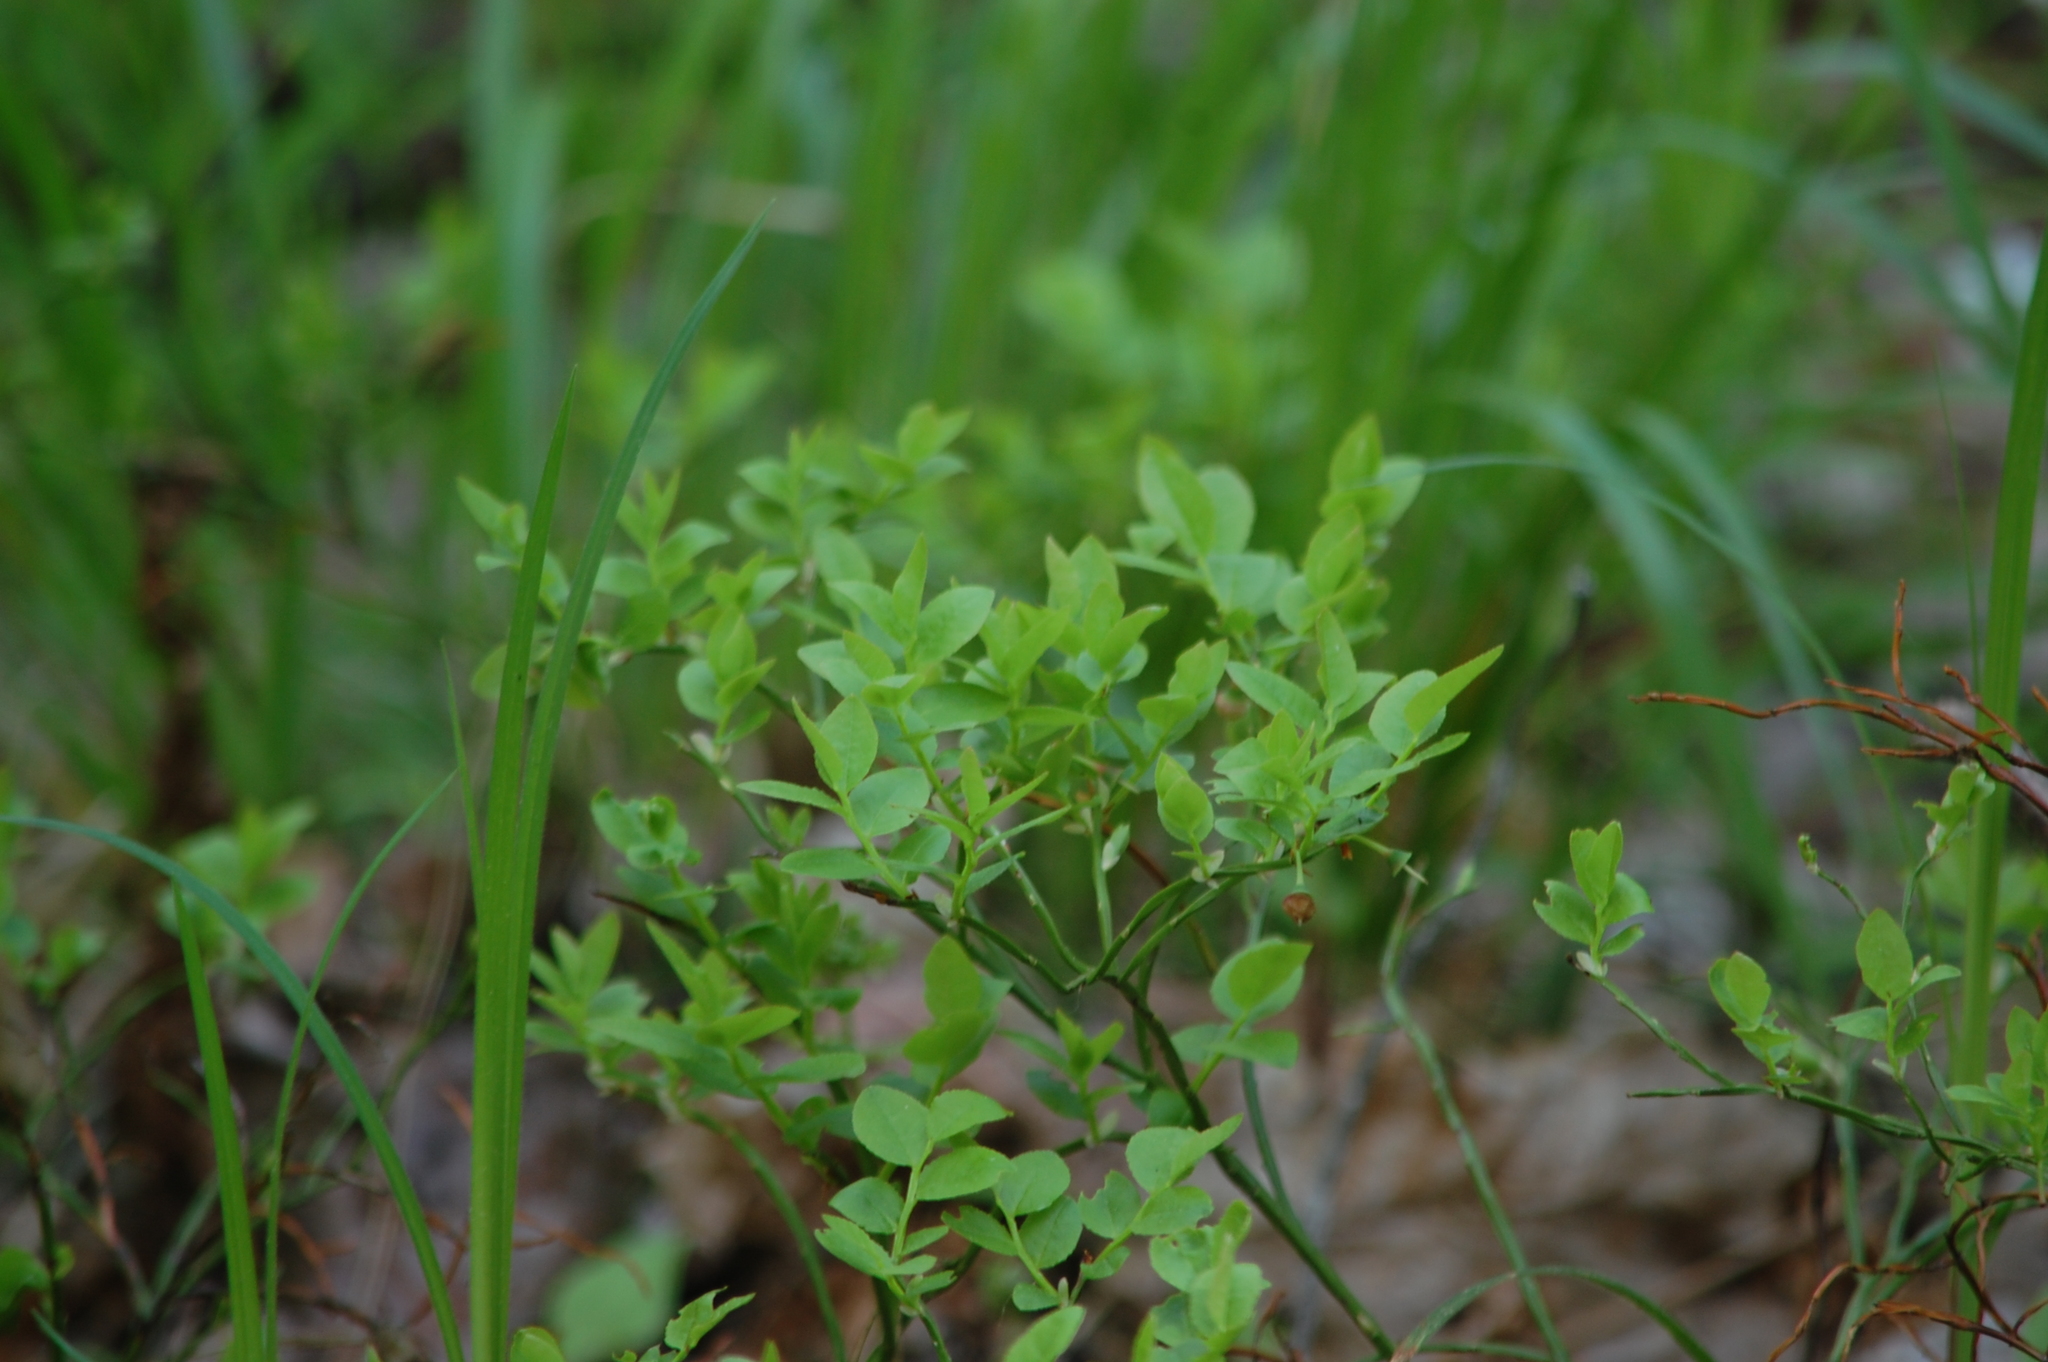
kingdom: Plantae
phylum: Tracheophyta
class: Magnoliopsida
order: Ericales
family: Ericaceae
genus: Vaccinium
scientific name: Vaccinium myrtillus
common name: Bilberry
